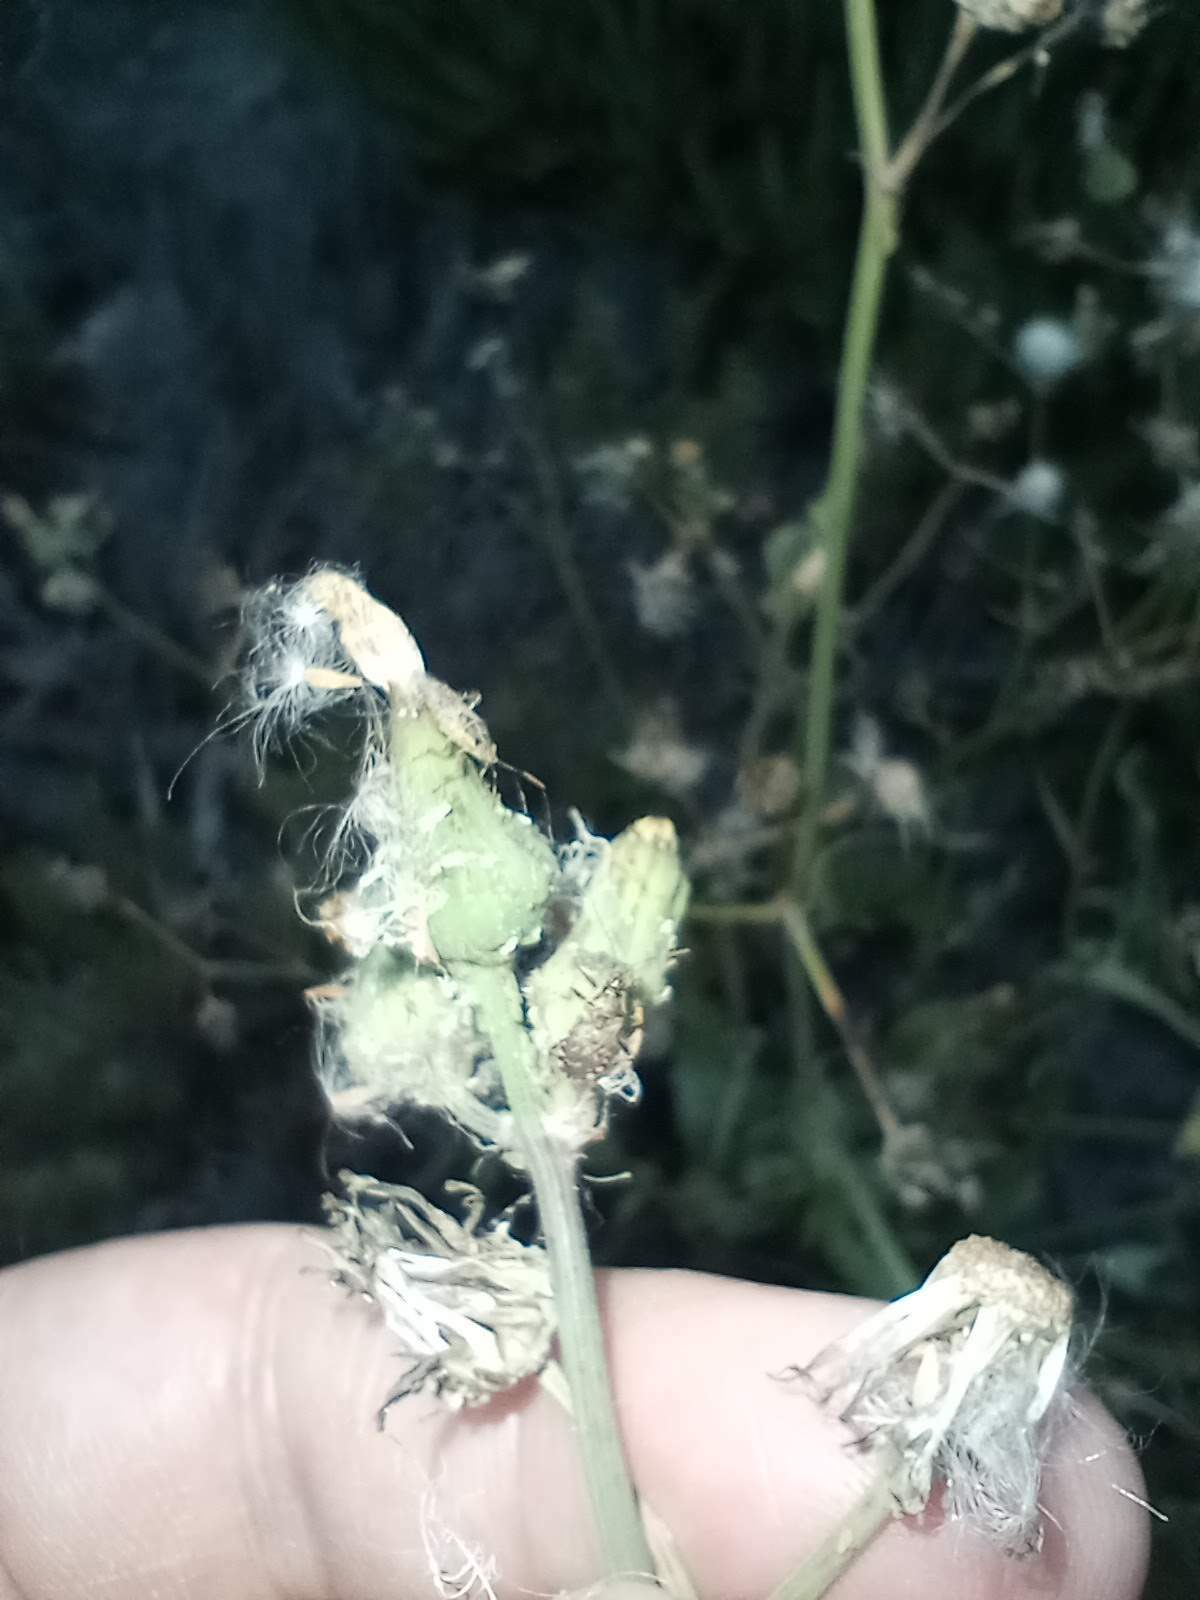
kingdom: Animalia
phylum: Arthropoda
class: Insecta
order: Hemiptera
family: Rhopalidae
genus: Liorhyssus
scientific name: Liorhyssus hyalinus
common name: Scentless plant bug
